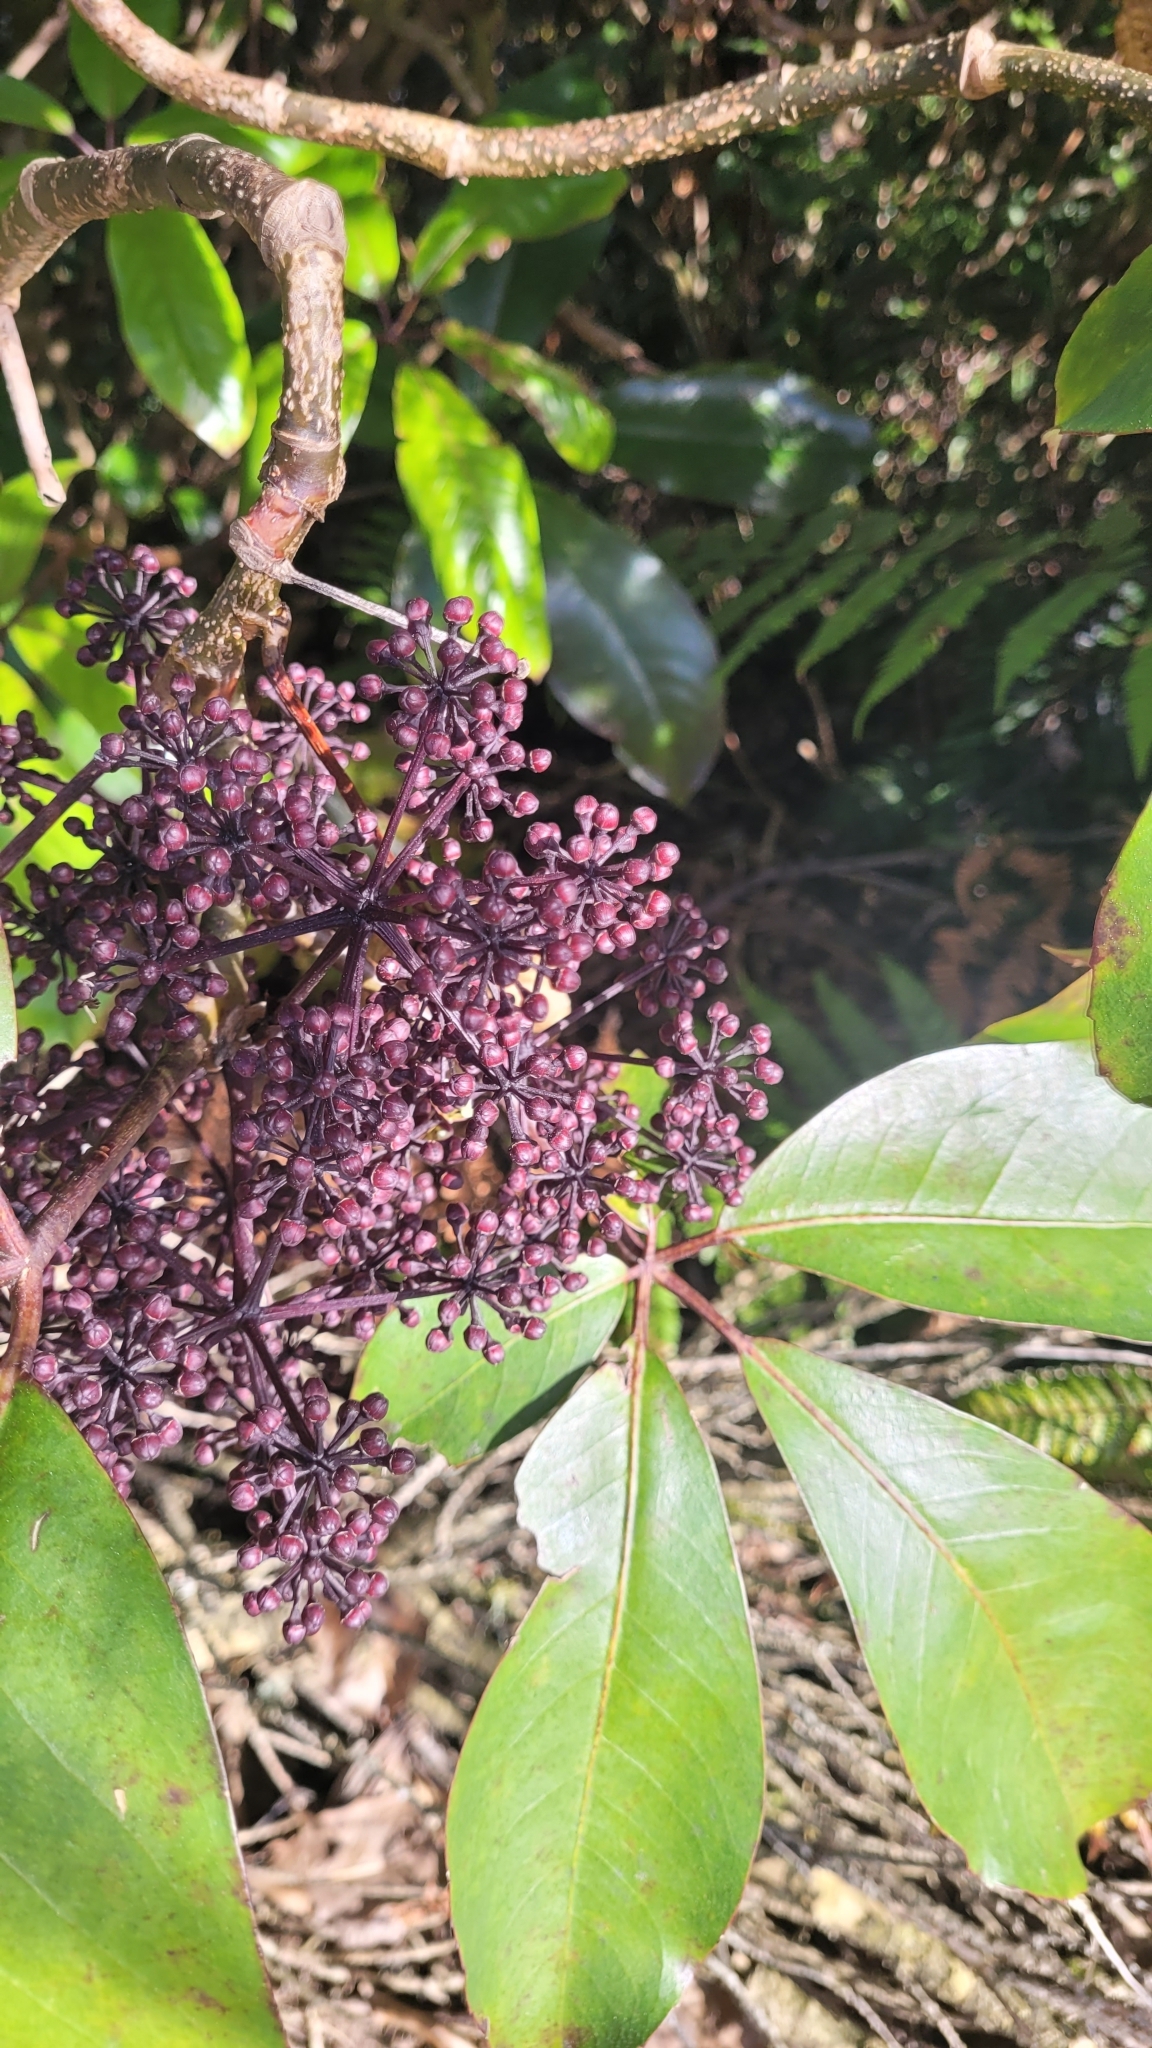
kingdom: Plantae
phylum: Tracheophyta
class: Magnoliopsida
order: Apiales
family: Araliaceae
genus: Neopanax
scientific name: Neopanax laetus
